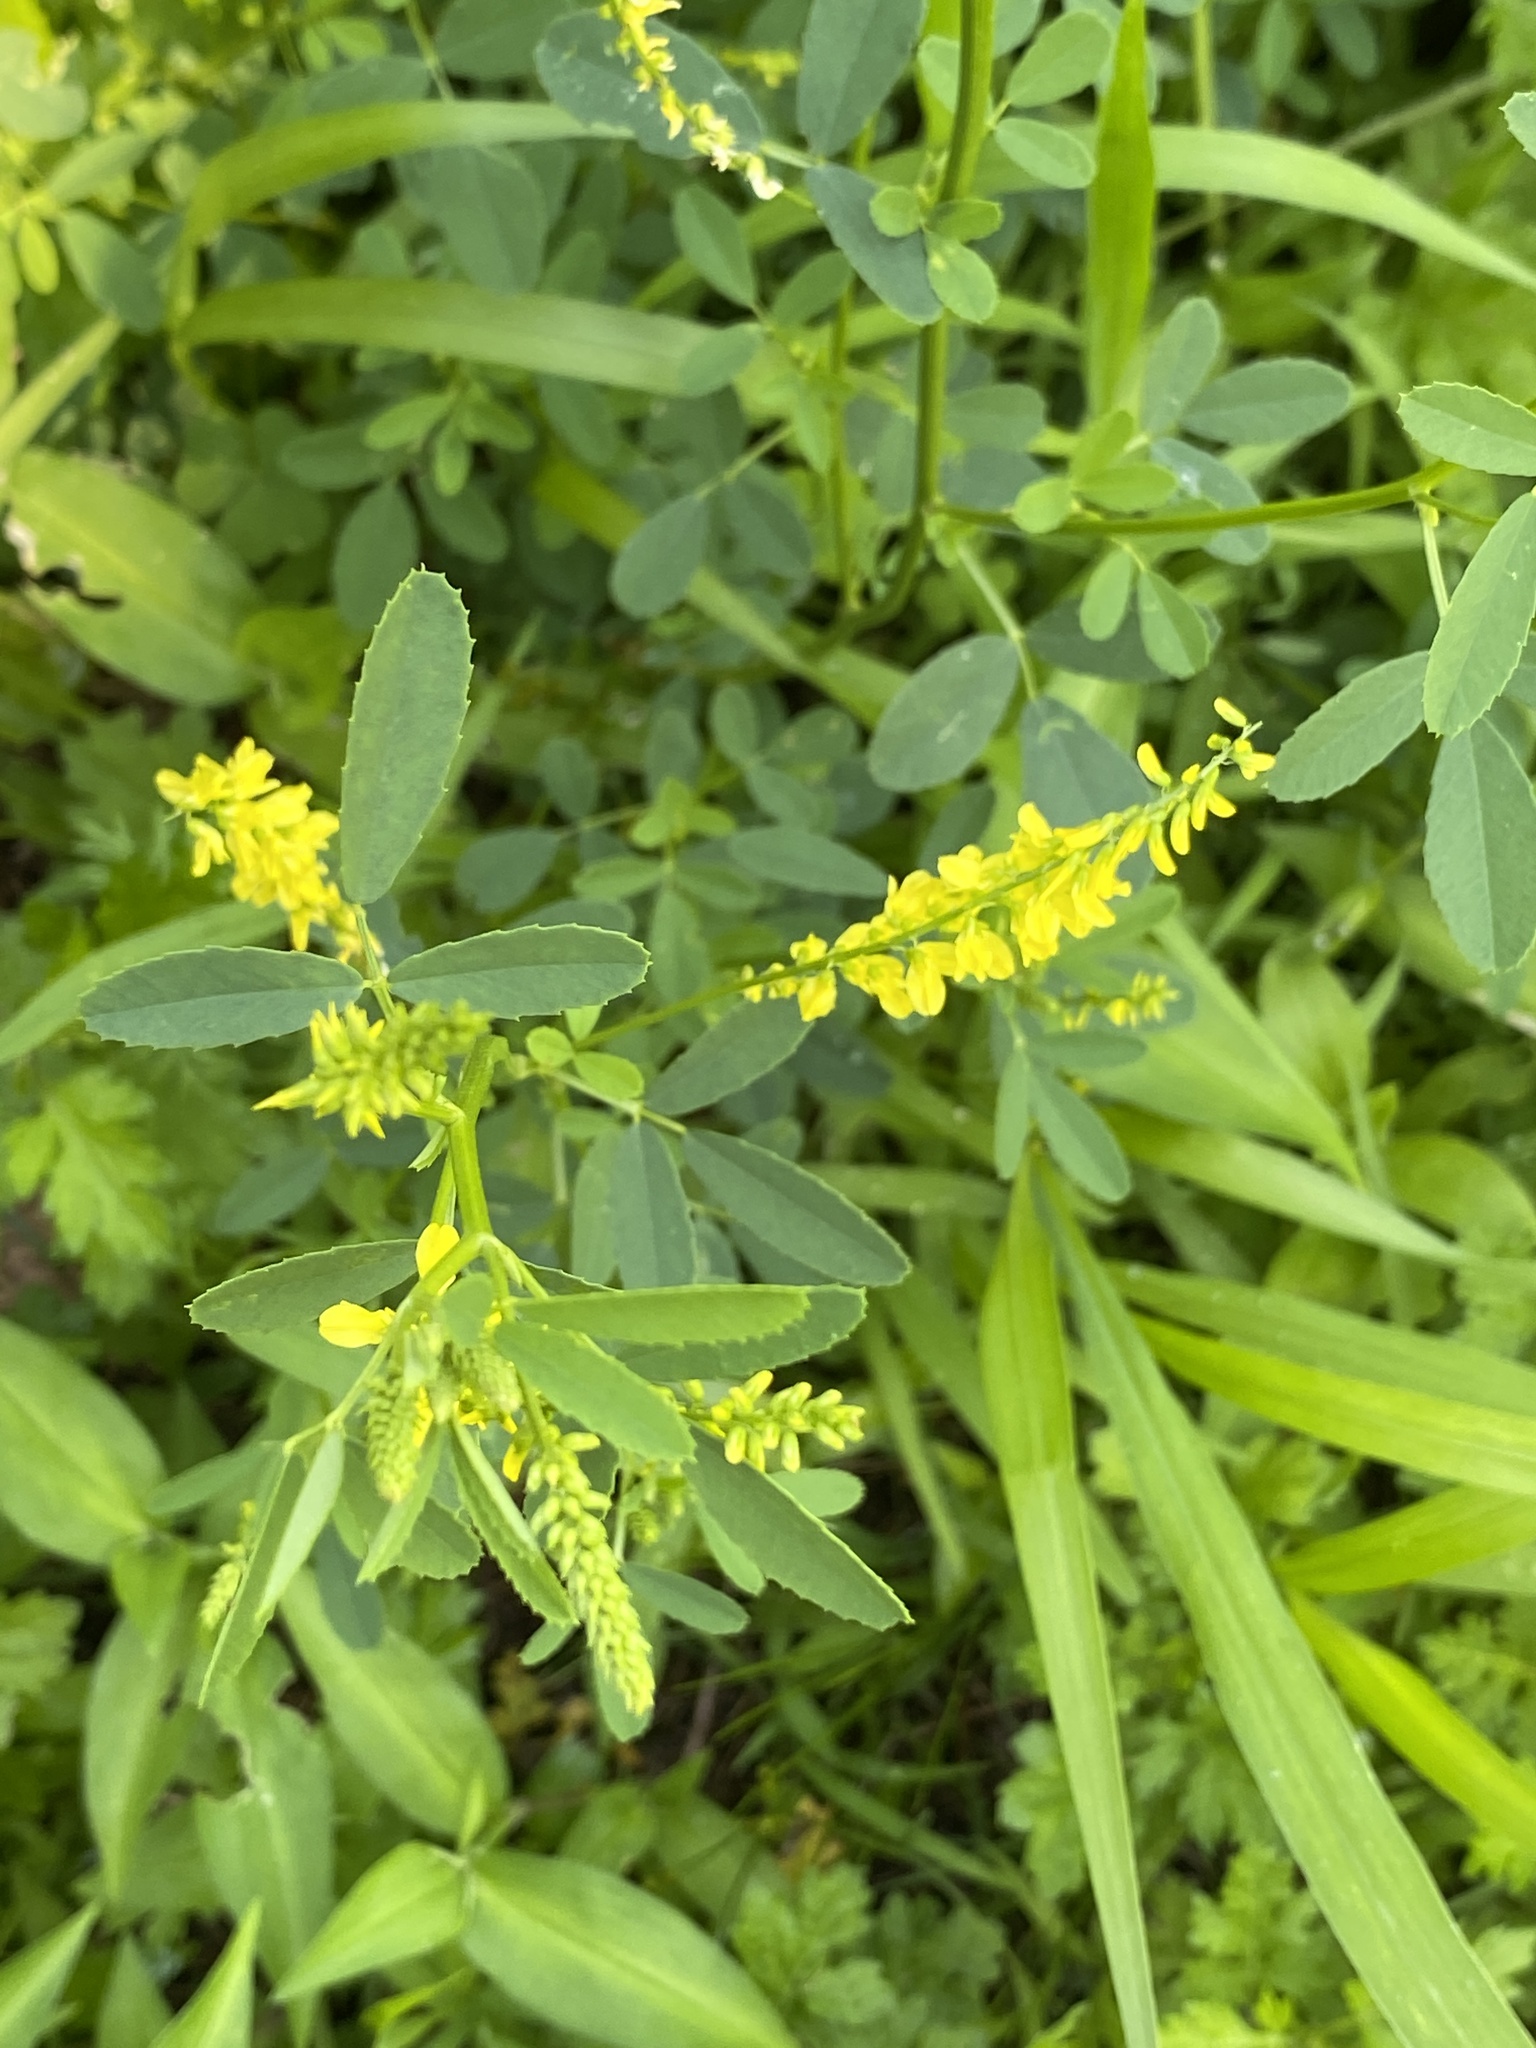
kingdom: Plantae
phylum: Tracheophyta
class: Magnoliopsida
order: Fabales
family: Fabaceae
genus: Melilotus
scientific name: Melilotus officinalis
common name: Sweetclover
